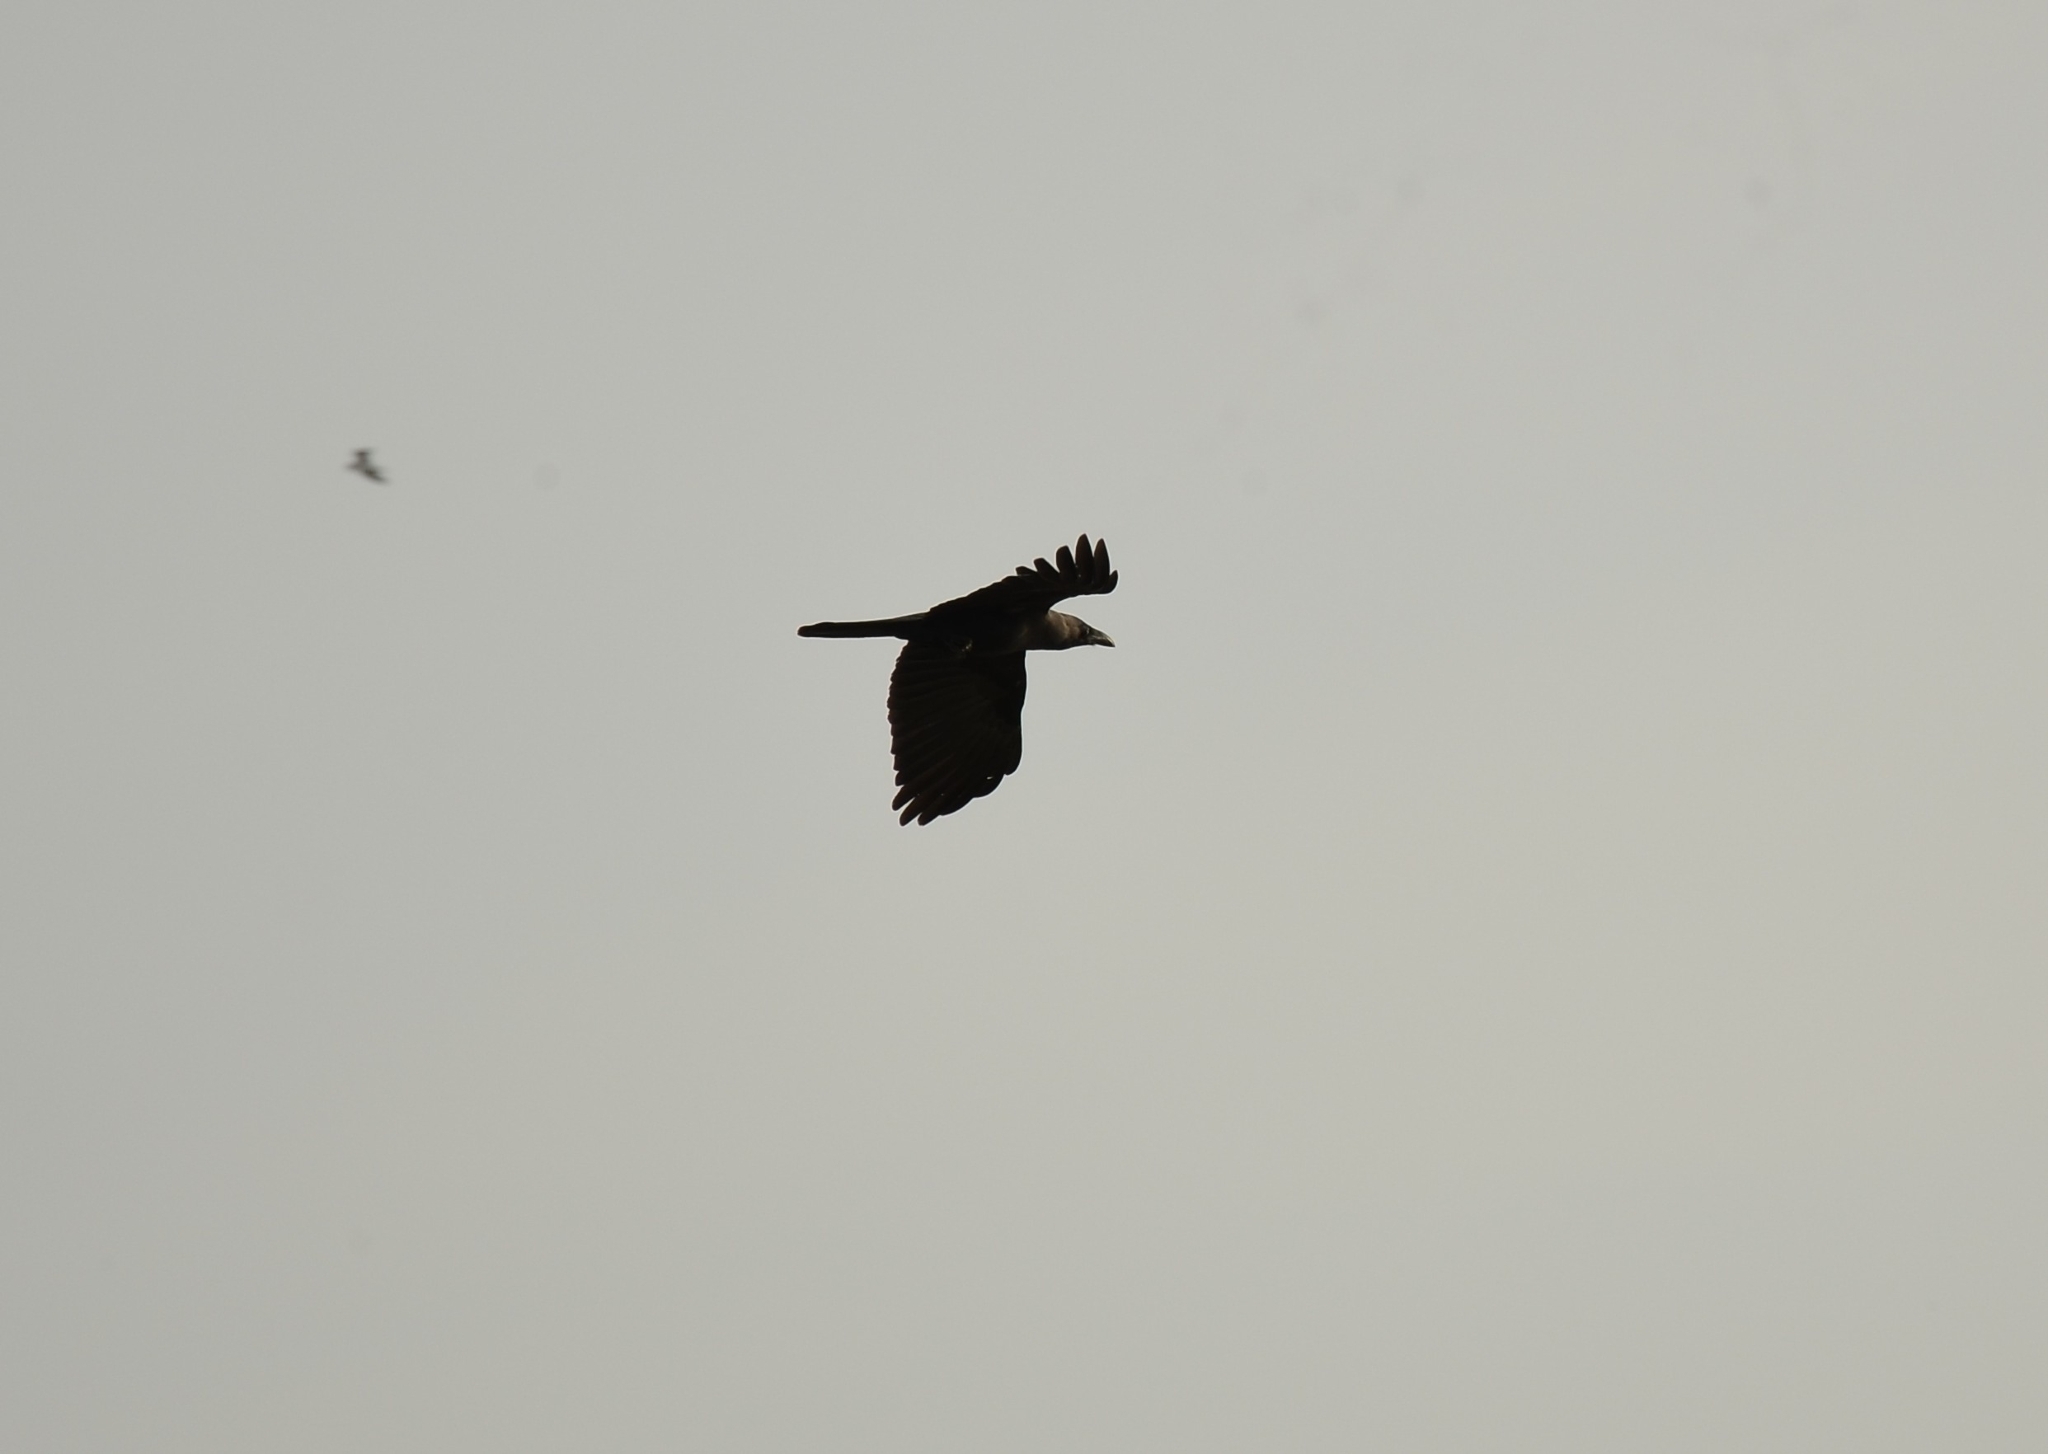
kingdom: Animalia
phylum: Chordata
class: Aves
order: Passeriformes
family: Corvidae
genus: Corvus
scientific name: Corvus splendens
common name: House crow
